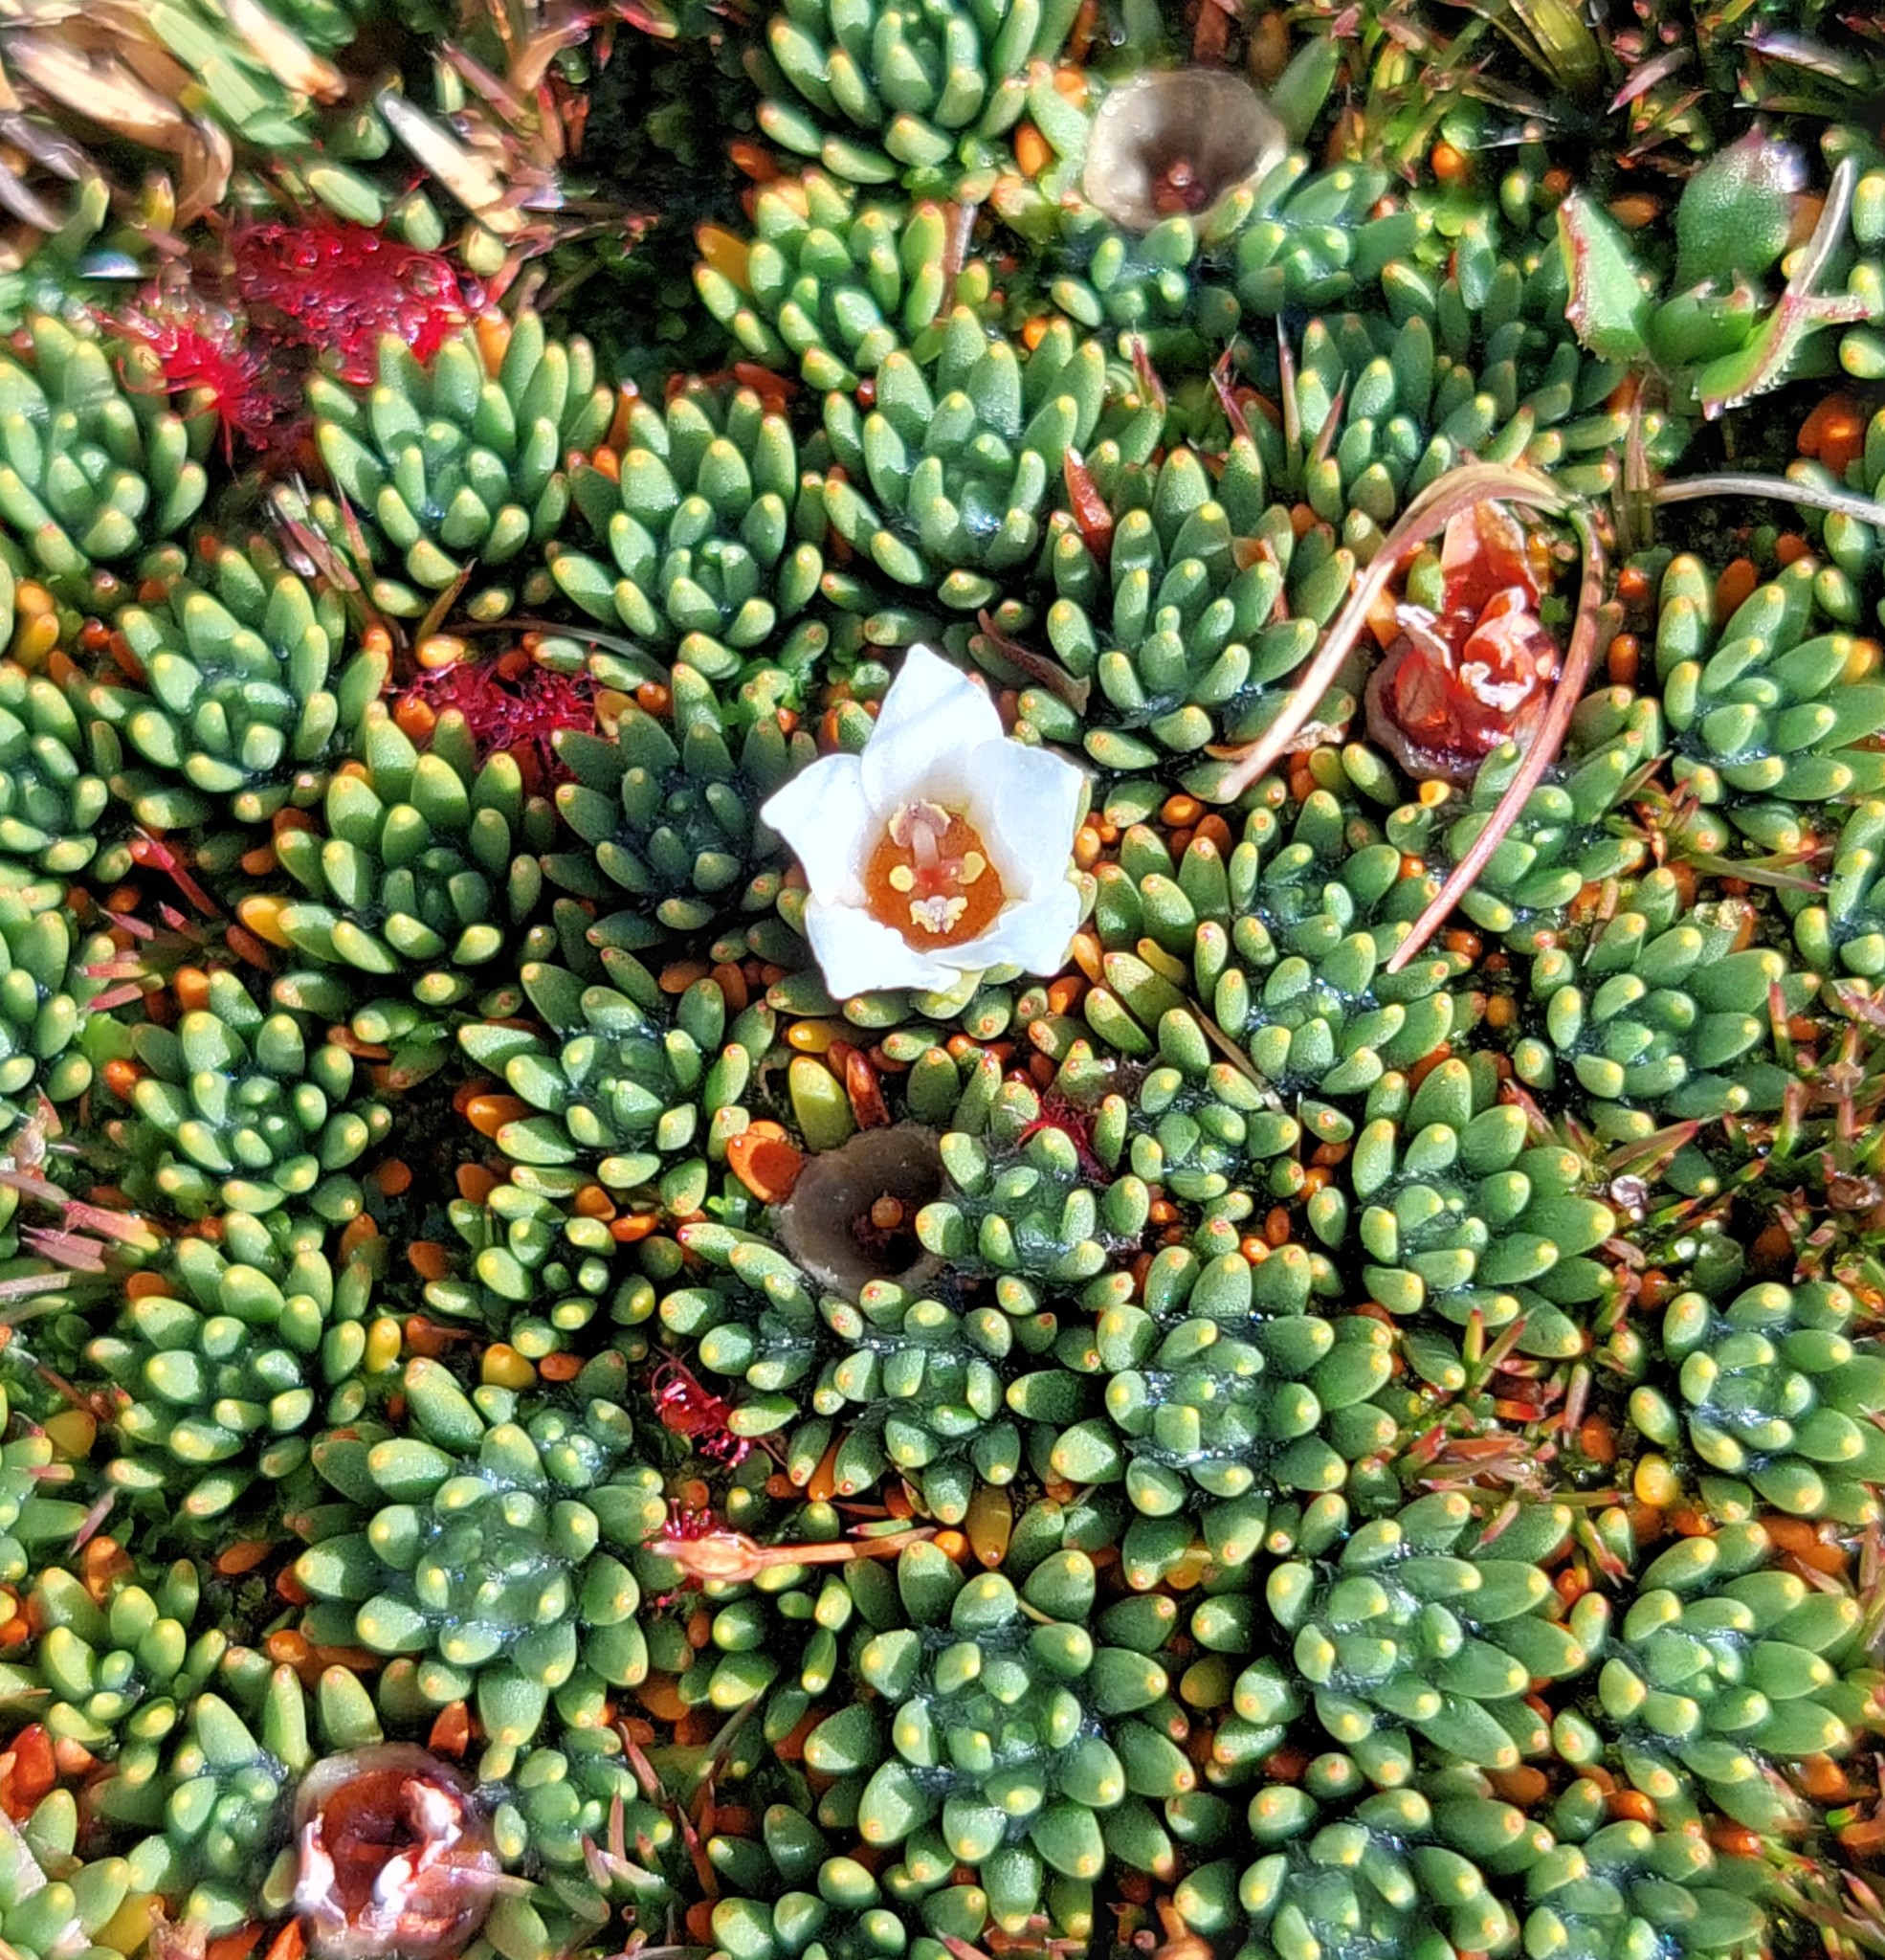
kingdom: Plantae
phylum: Tracheophyta
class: Magnoliopsida
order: Asterales
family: Stylidiaceae
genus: Donatia
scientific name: Donatia novae-zelandiae
